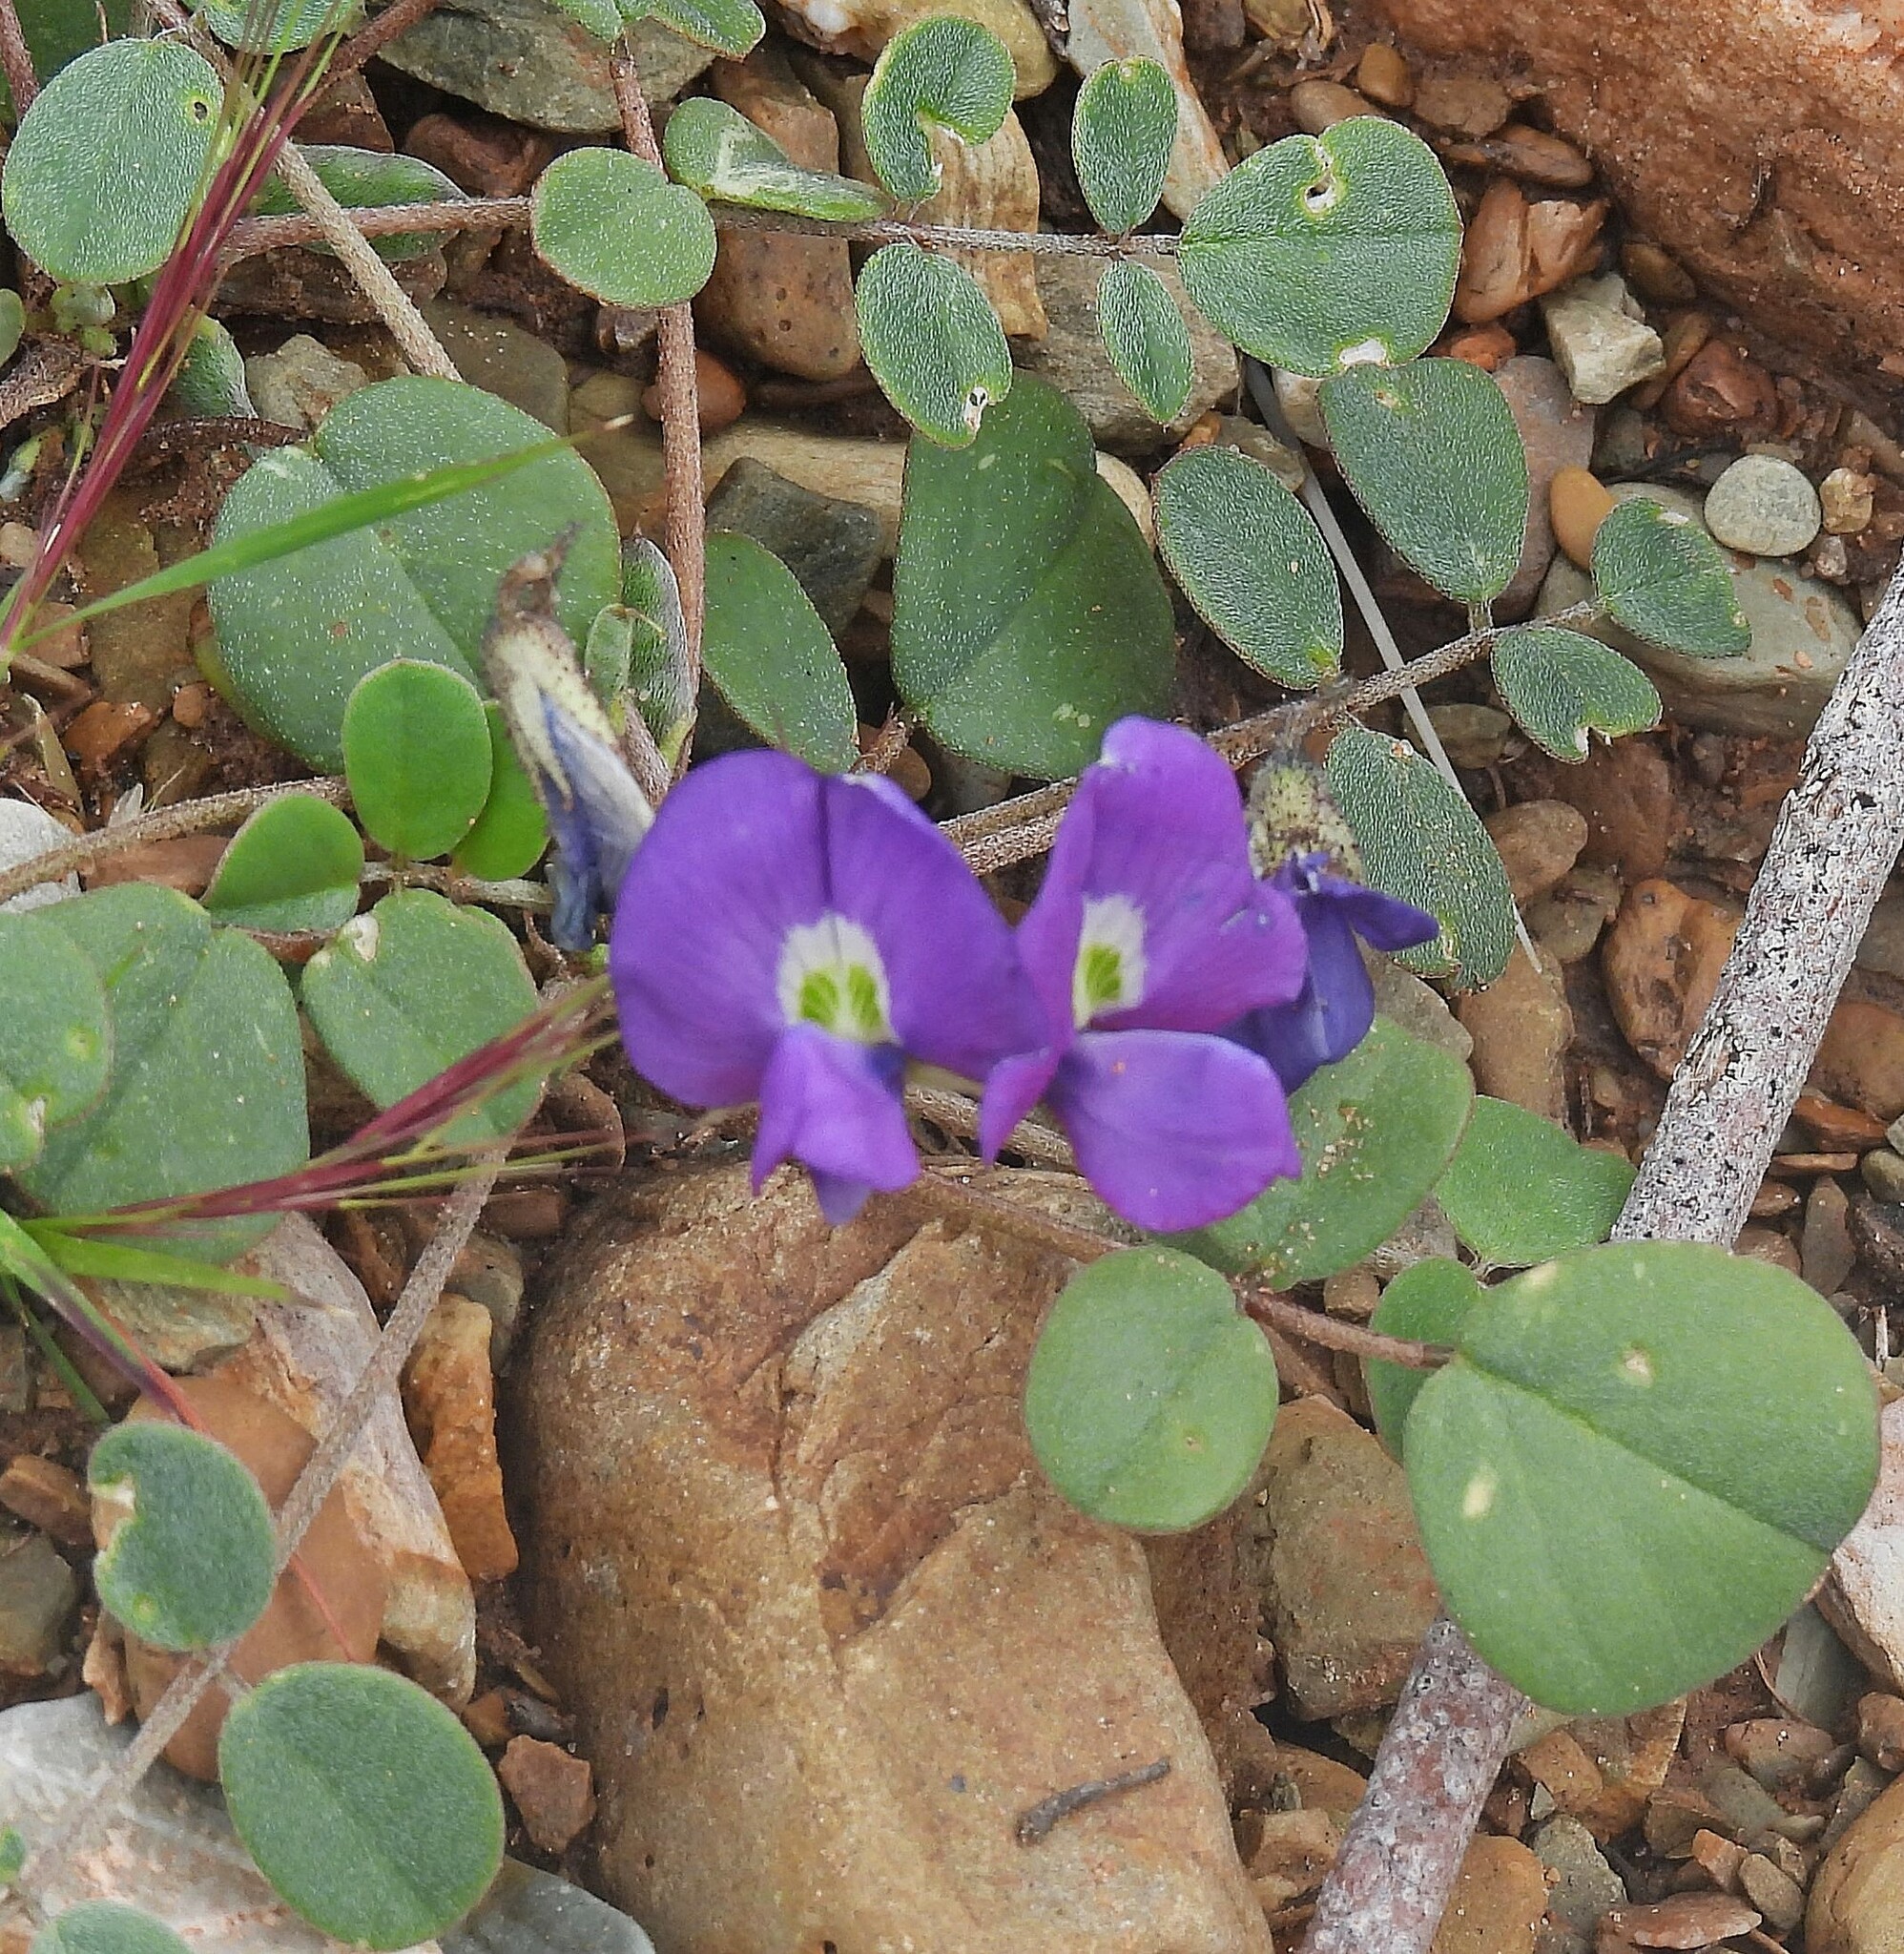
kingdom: Plantae
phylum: Tracheophyta
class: Magnoliopsida
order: Fabales
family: Fabaceae
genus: Poissonia
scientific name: Poissonia heterantha
